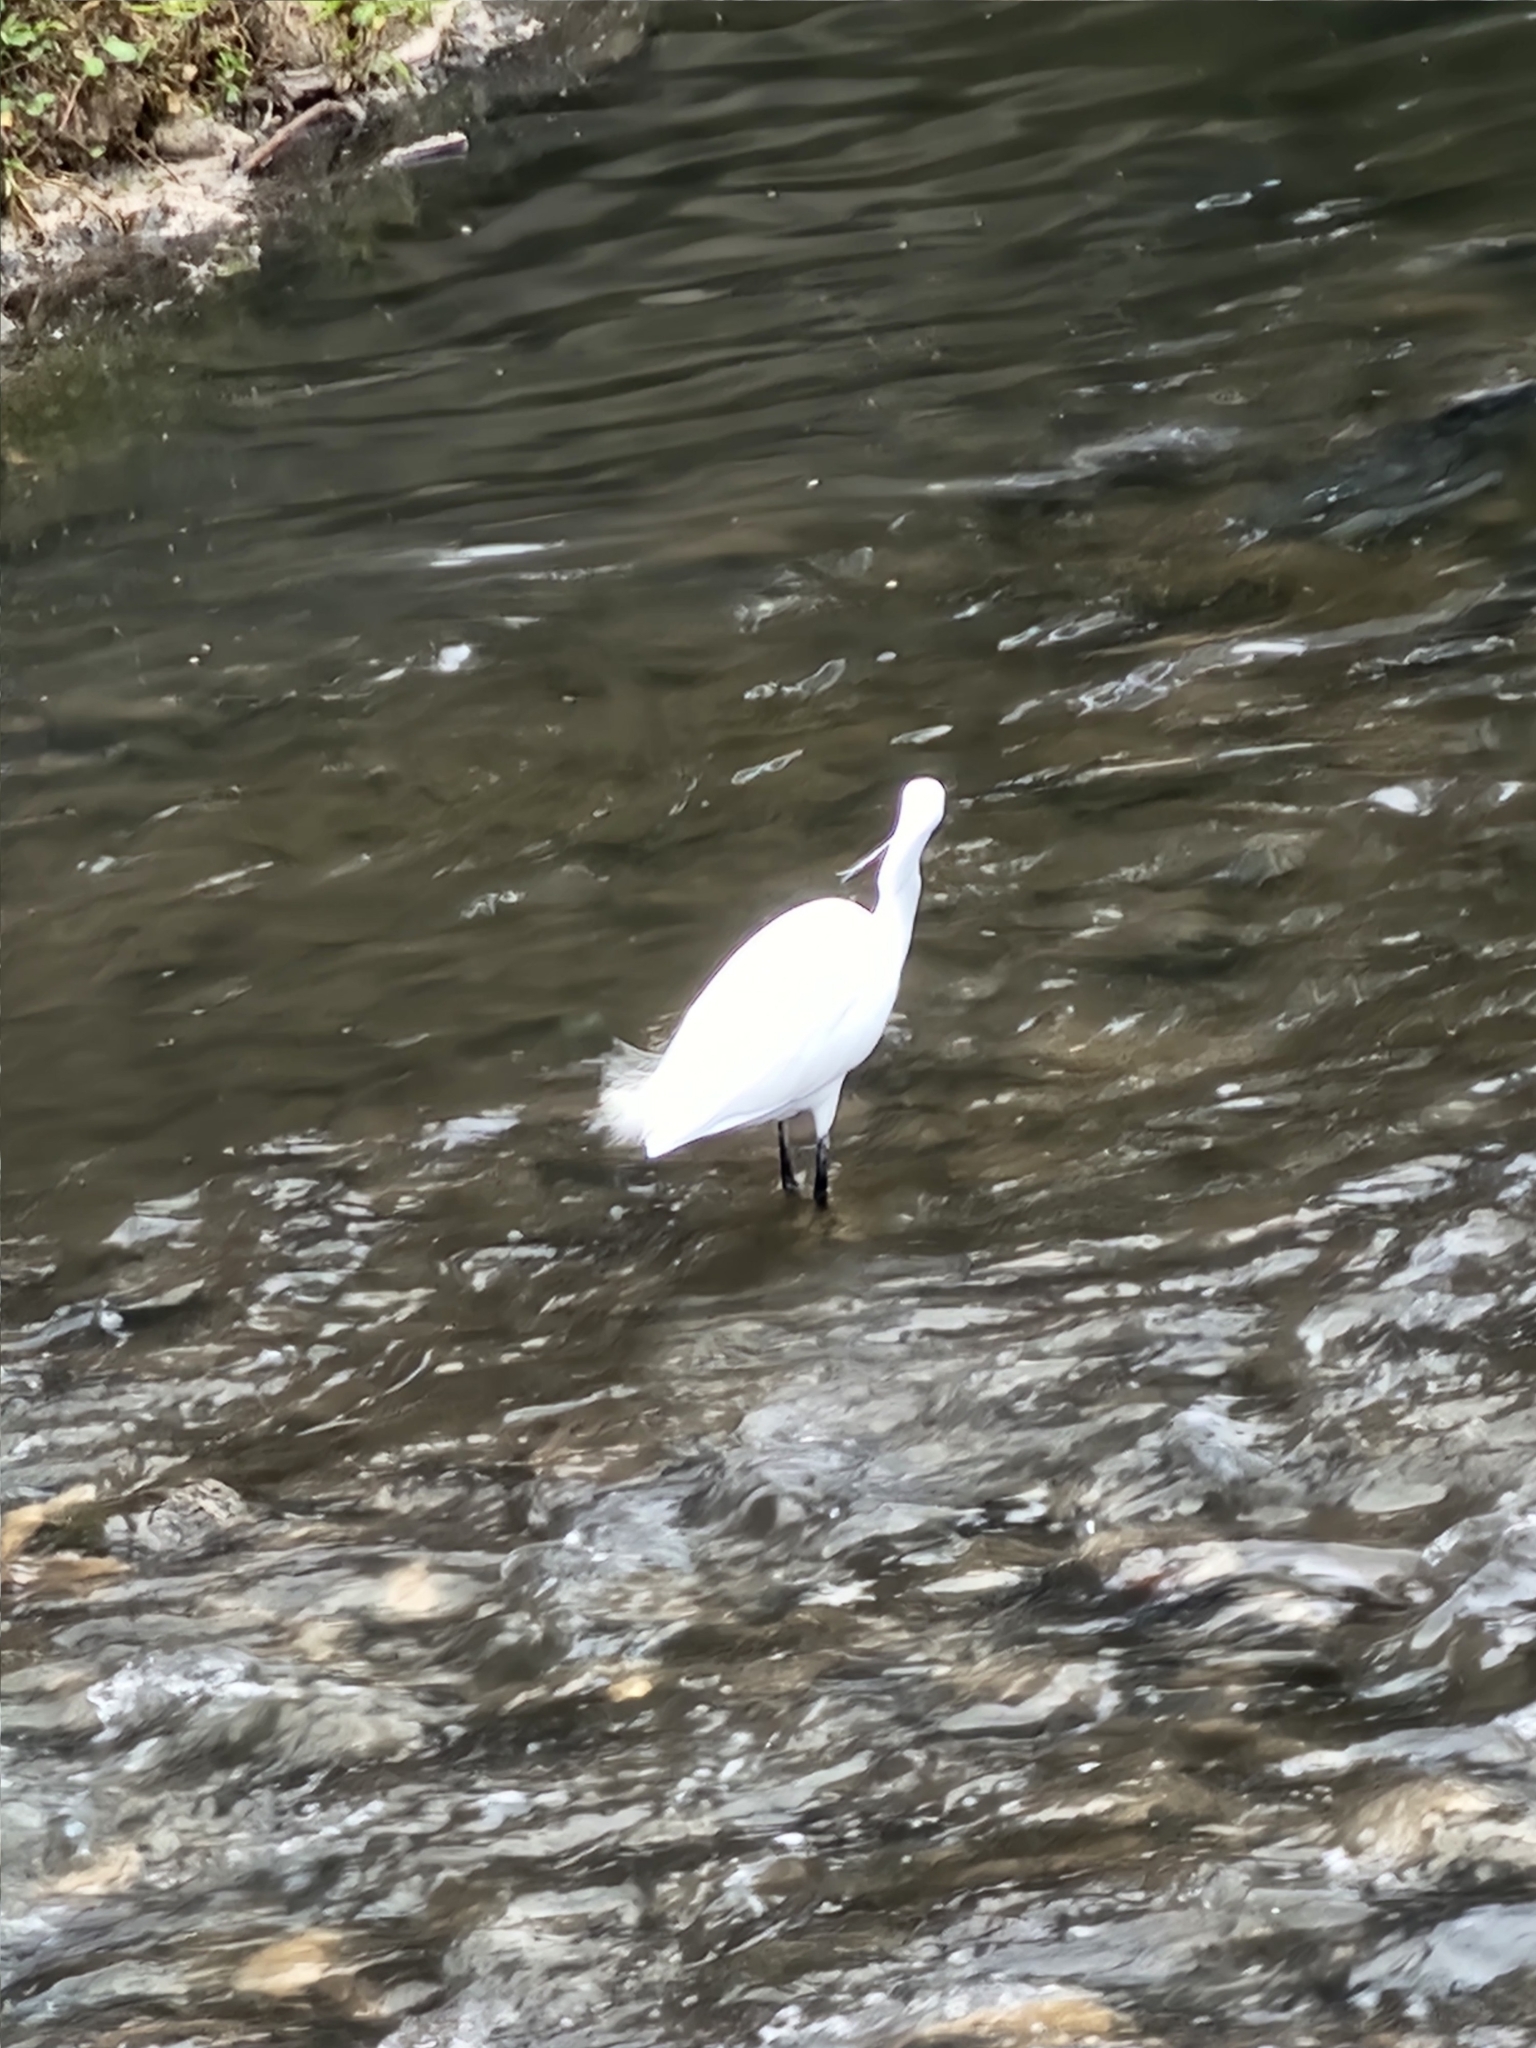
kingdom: Animalia
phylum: Chordata
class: Aves
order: Pelecaniformes
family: Ardeidae
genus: Egretta
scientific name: Egretta garzetta
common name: Little egret
